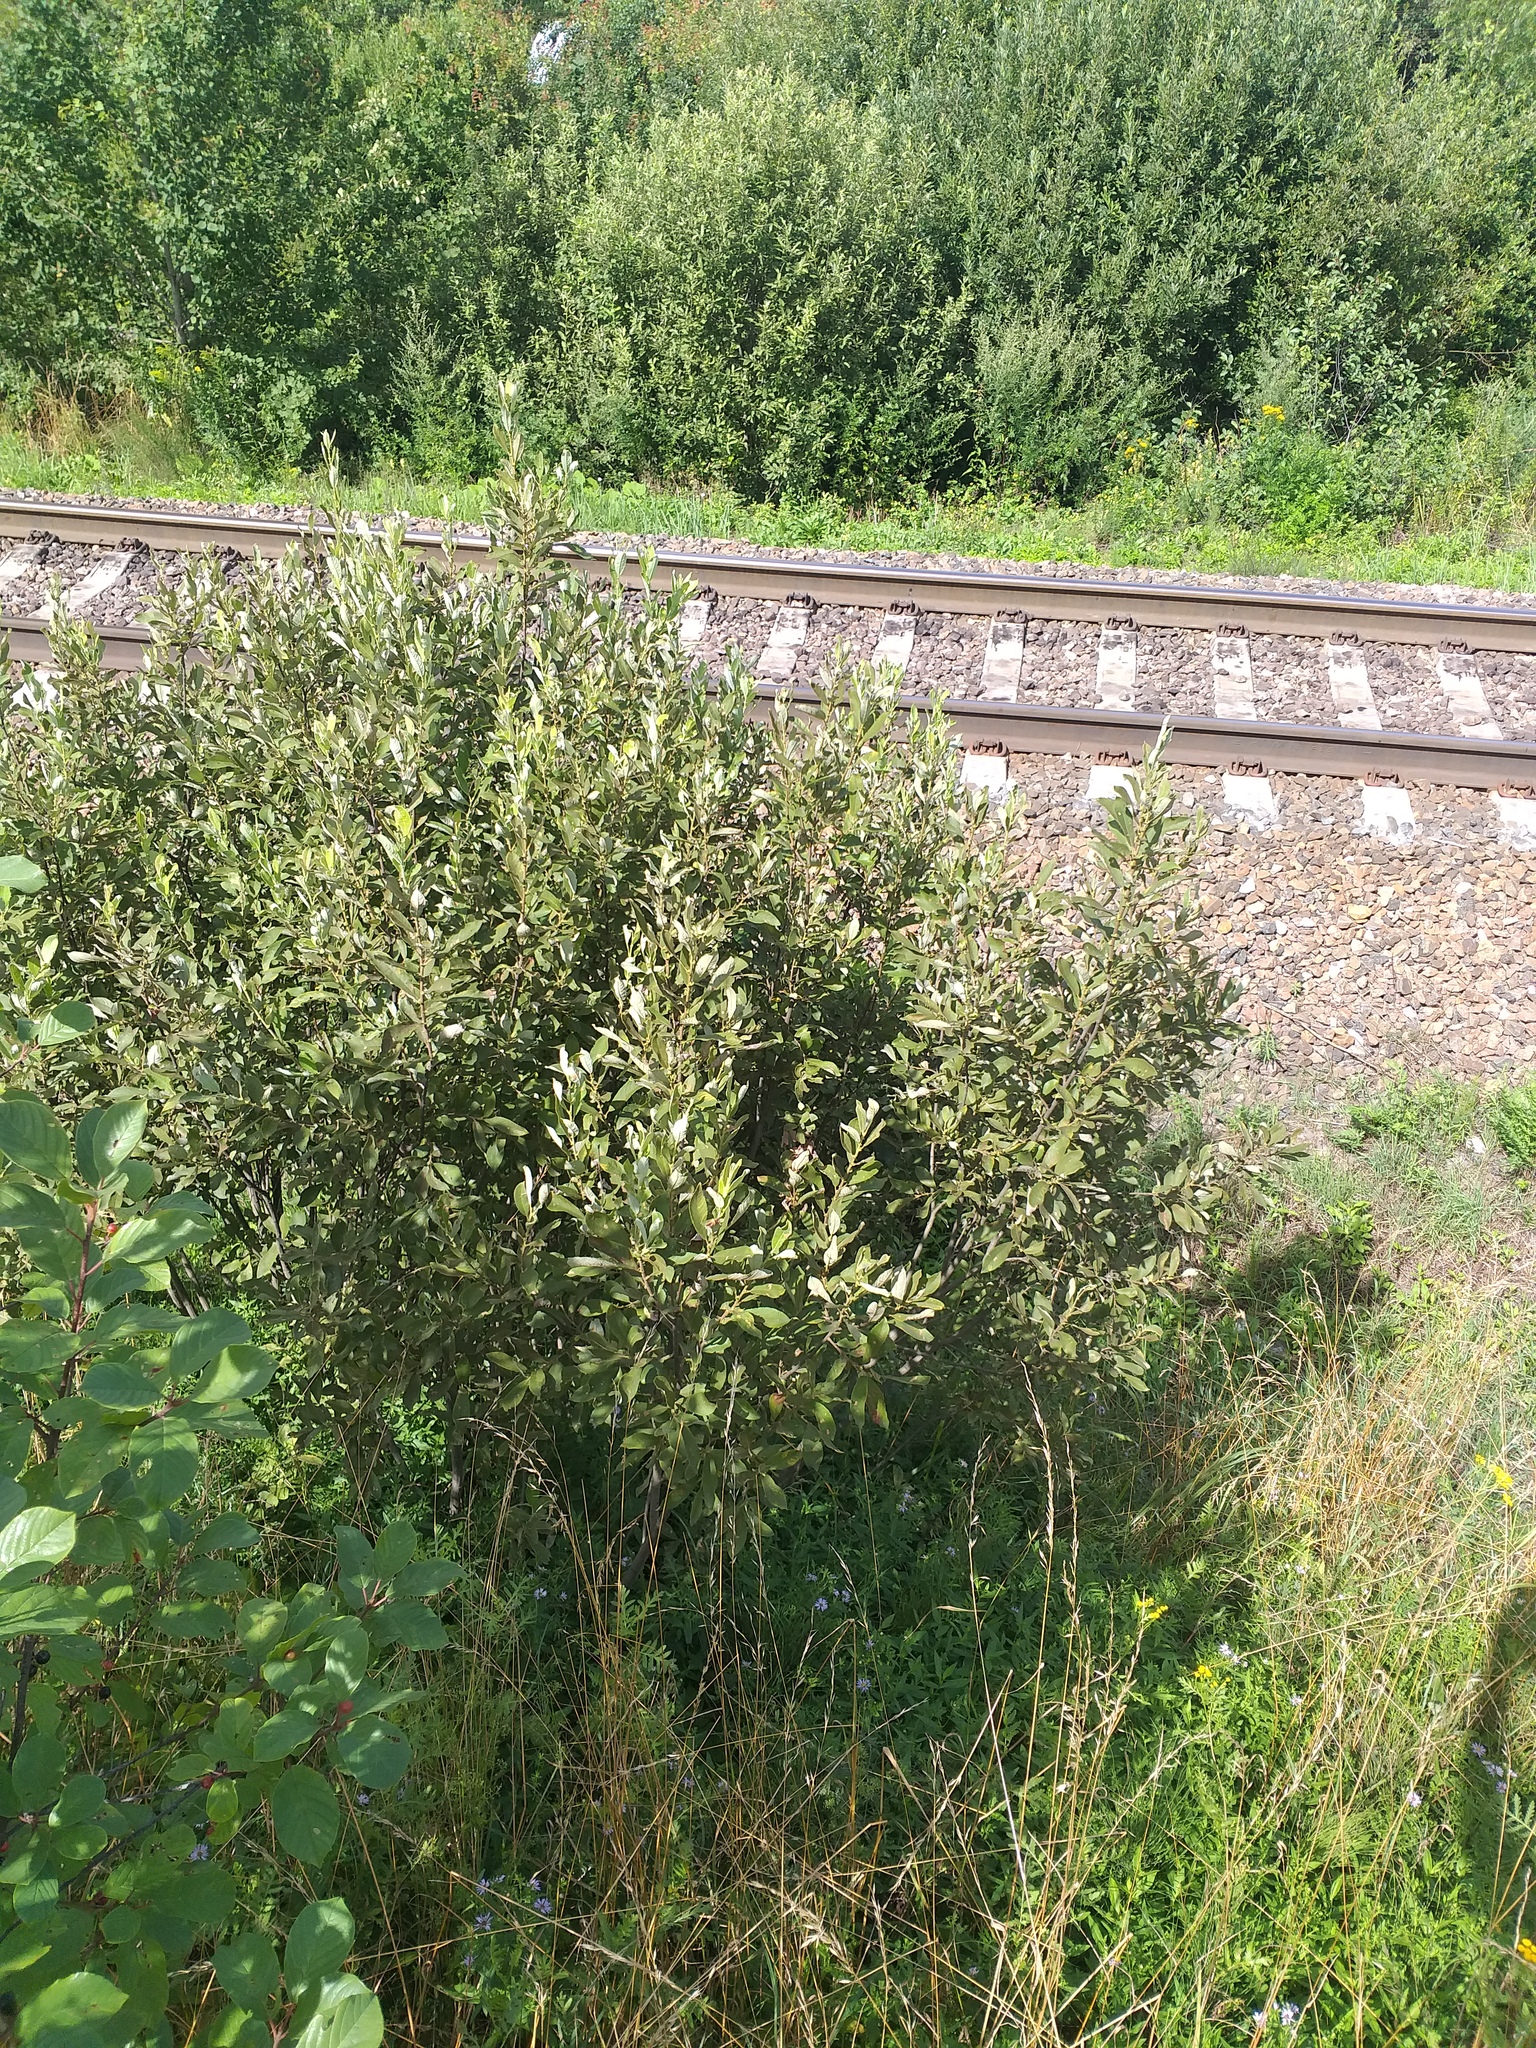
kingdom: Plantae
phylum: Tracheophyta
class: Magnoliopsida
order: Malpighiales
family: Salicaceae
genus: Salix
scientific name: Salix cinerea
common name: Common sallow
